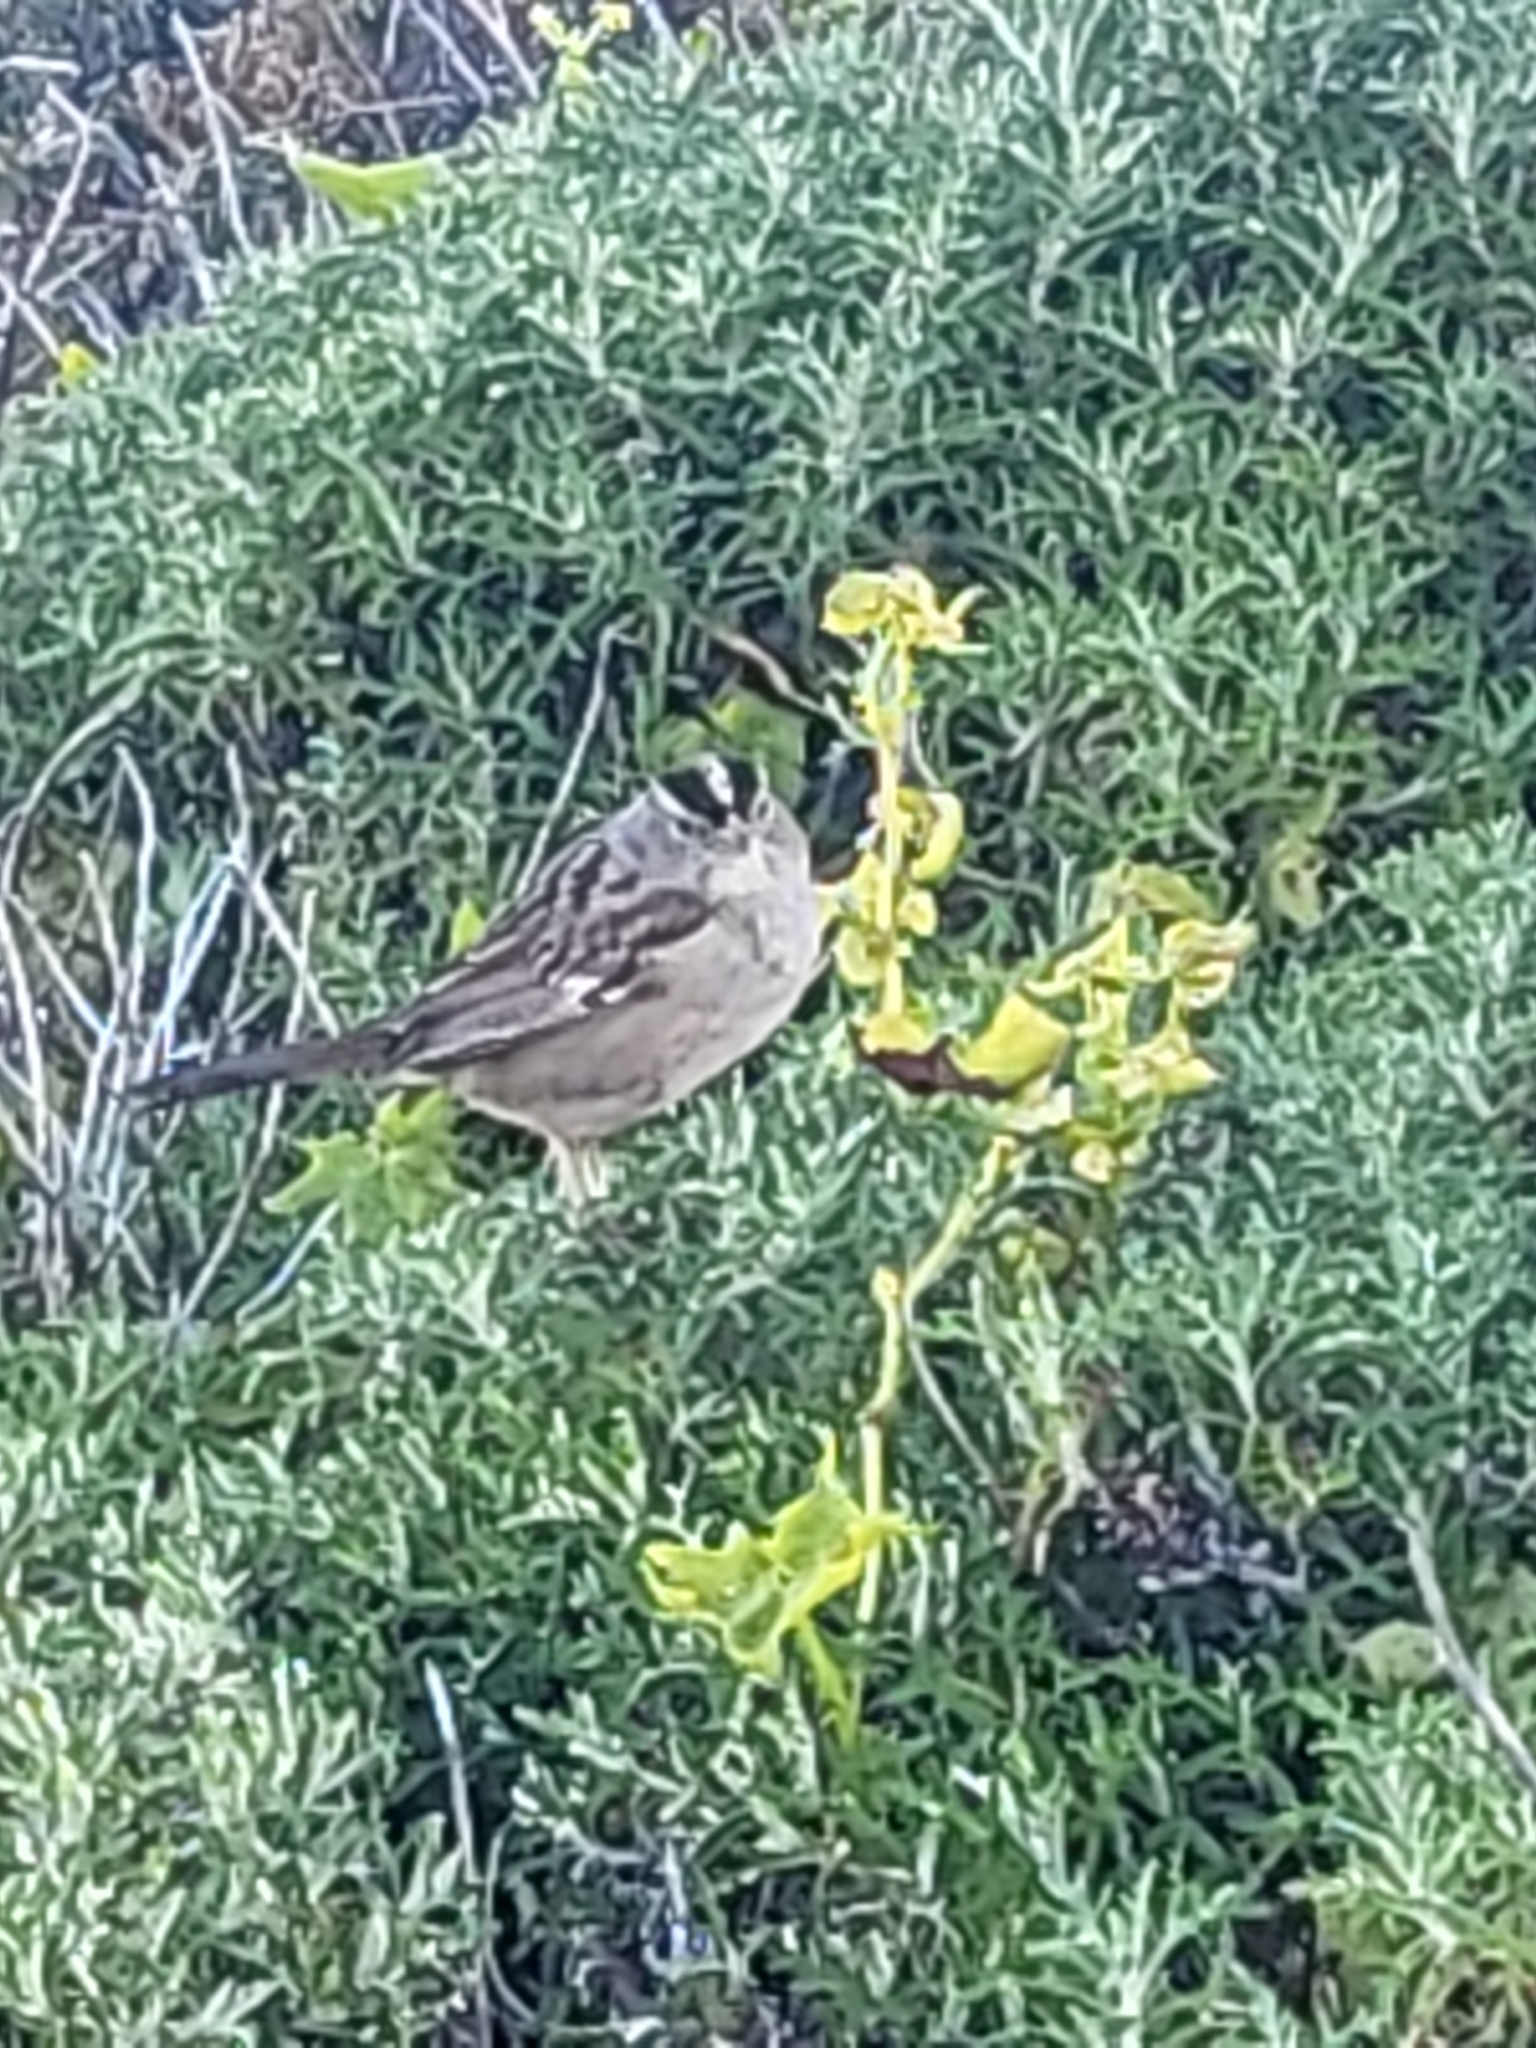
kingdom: Animalia
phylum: Chordata
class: Aves
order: Passeriformes
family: Passerellidae
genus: Zonotrichia
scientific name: Zonotrichia leucophrys
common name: White-crowned sparrow
